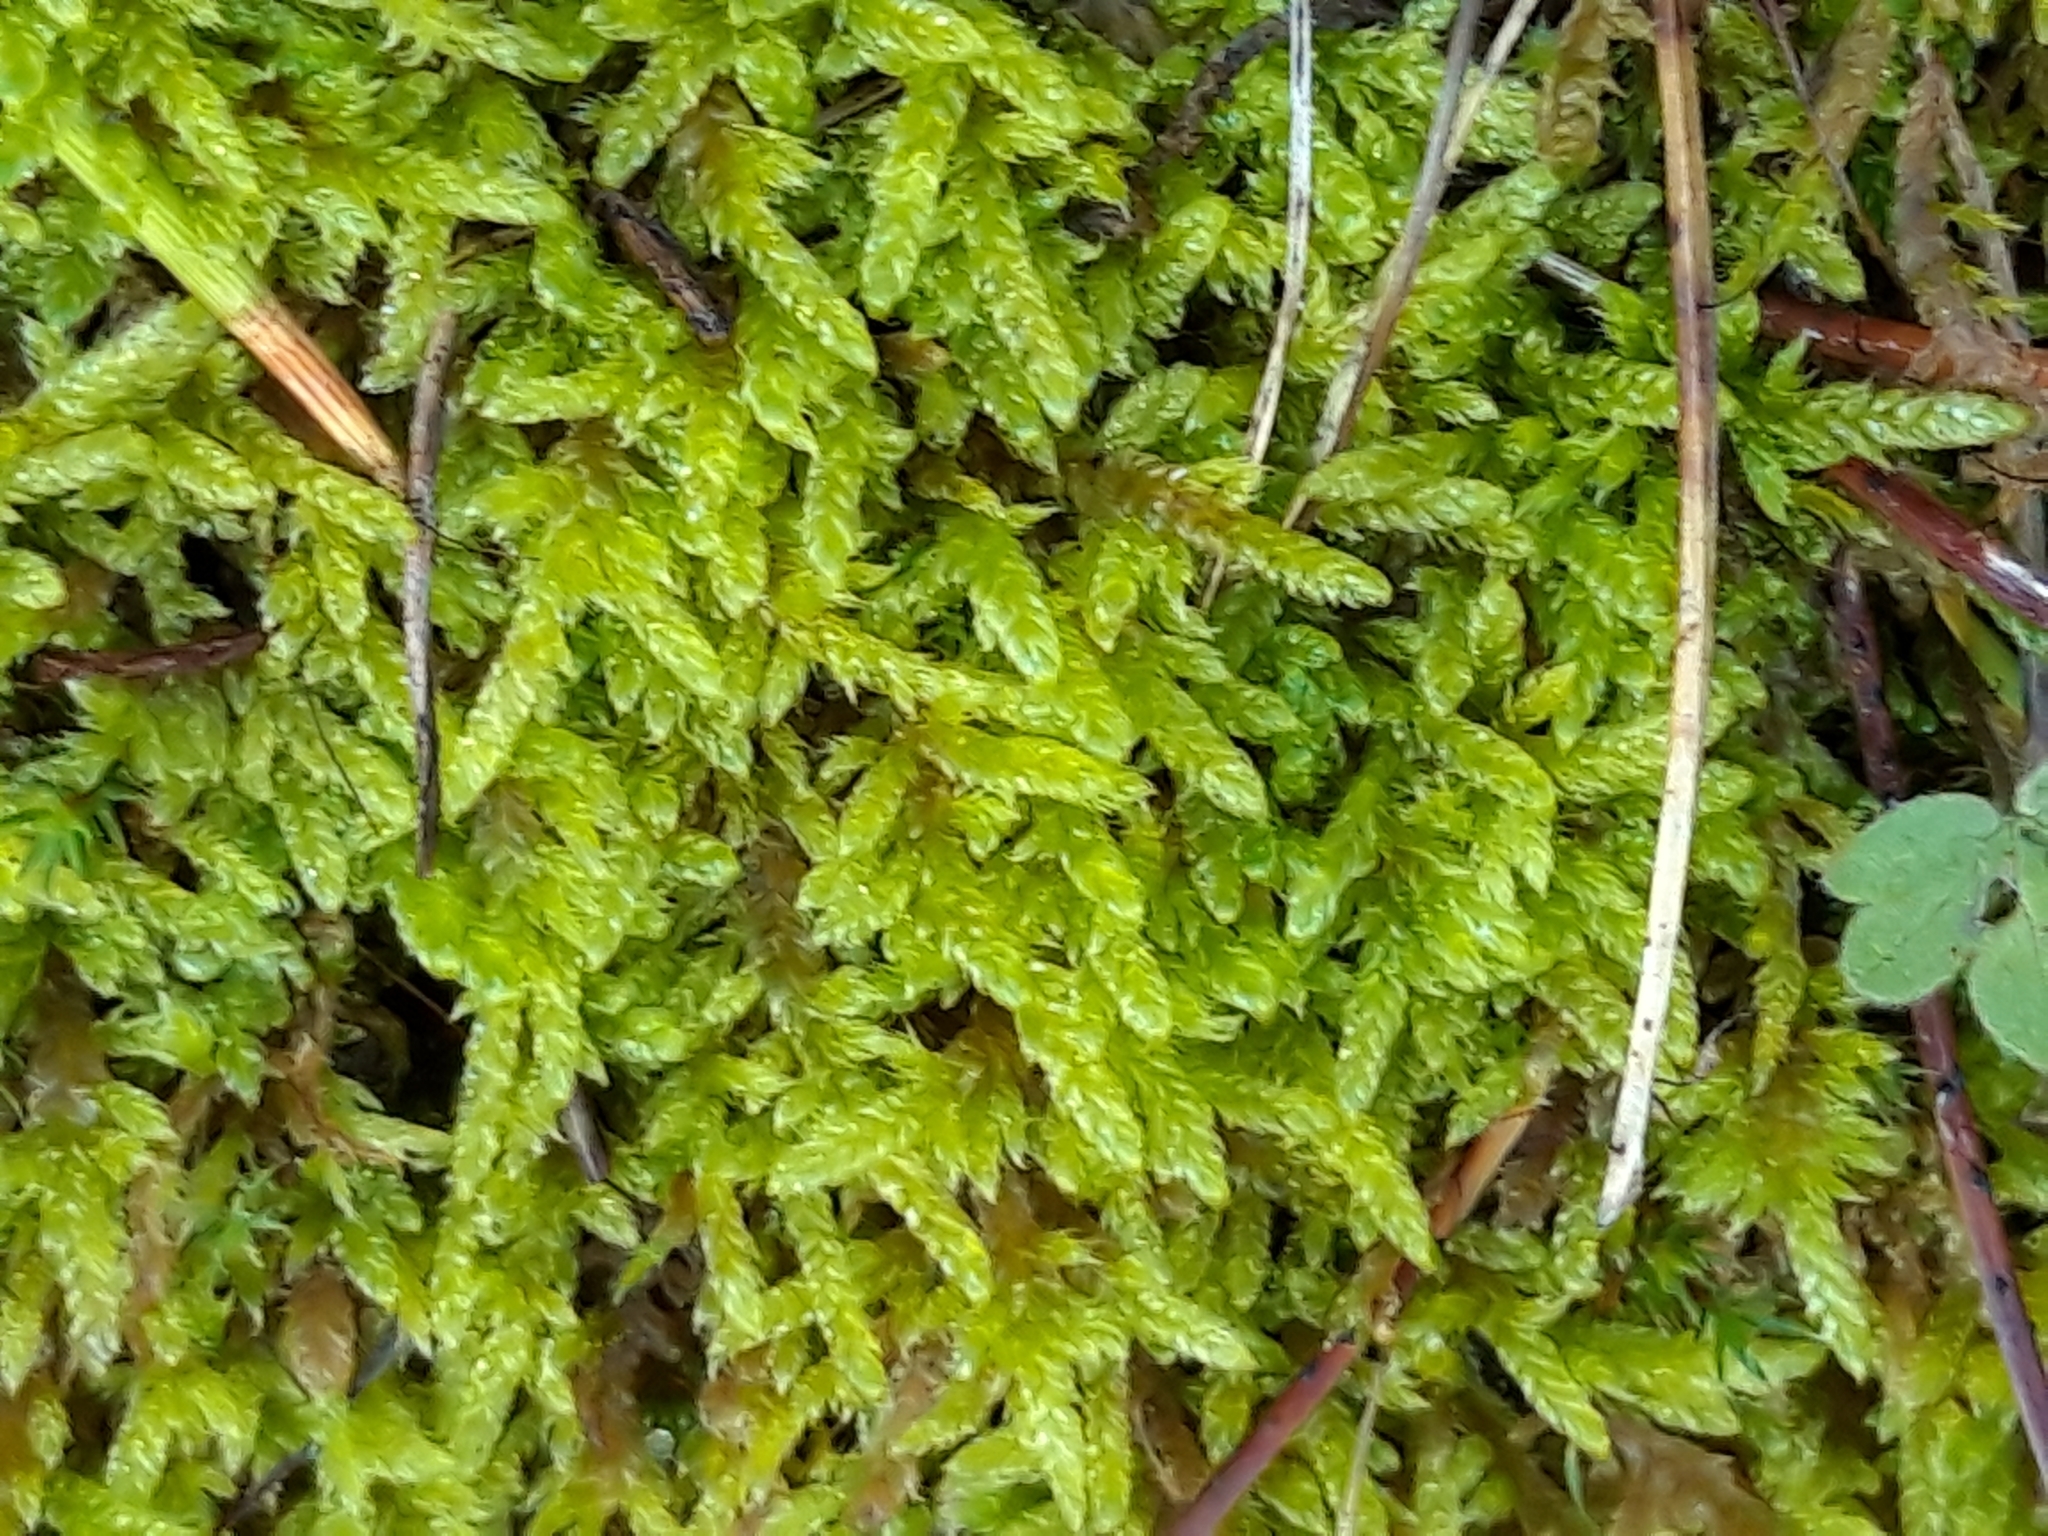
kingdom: Plantae
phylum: Bryophyta
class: Bryopsida
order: Hypnales
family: Hypnaceae
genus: Hypnum
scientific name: Hypnum cupressiforme
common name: Cypress-leaved plait-moss
